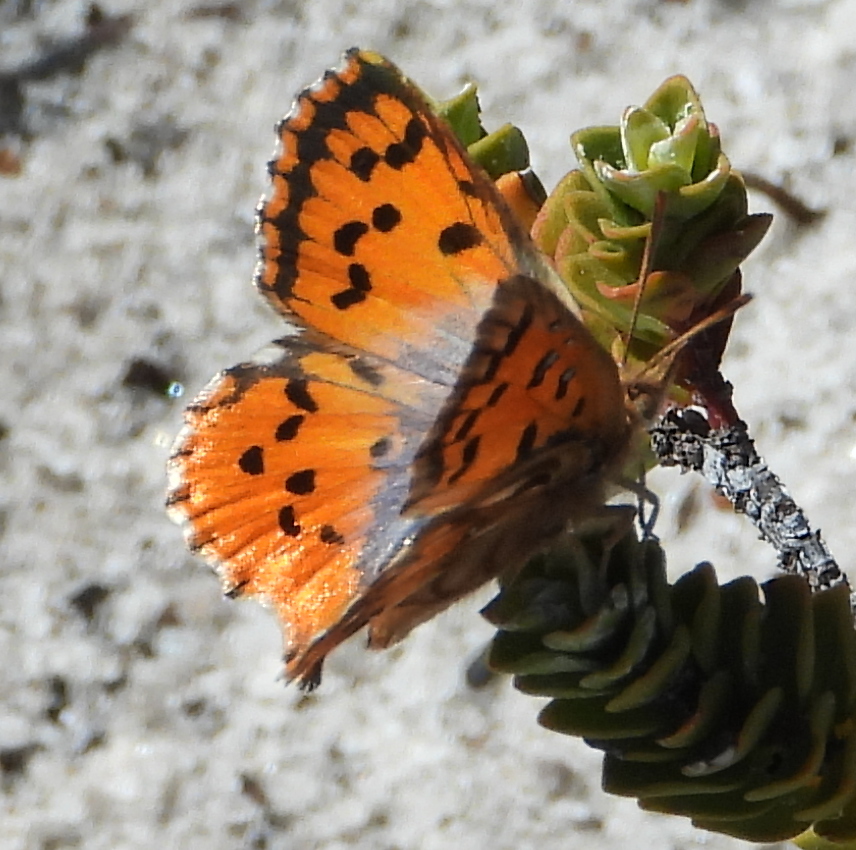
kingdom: Animalia
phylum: Arthropoda
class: Insecta
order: Lepidoptera
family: Lycaenidae
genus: Chrysoritis
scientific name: Chrysoritis thysbe
